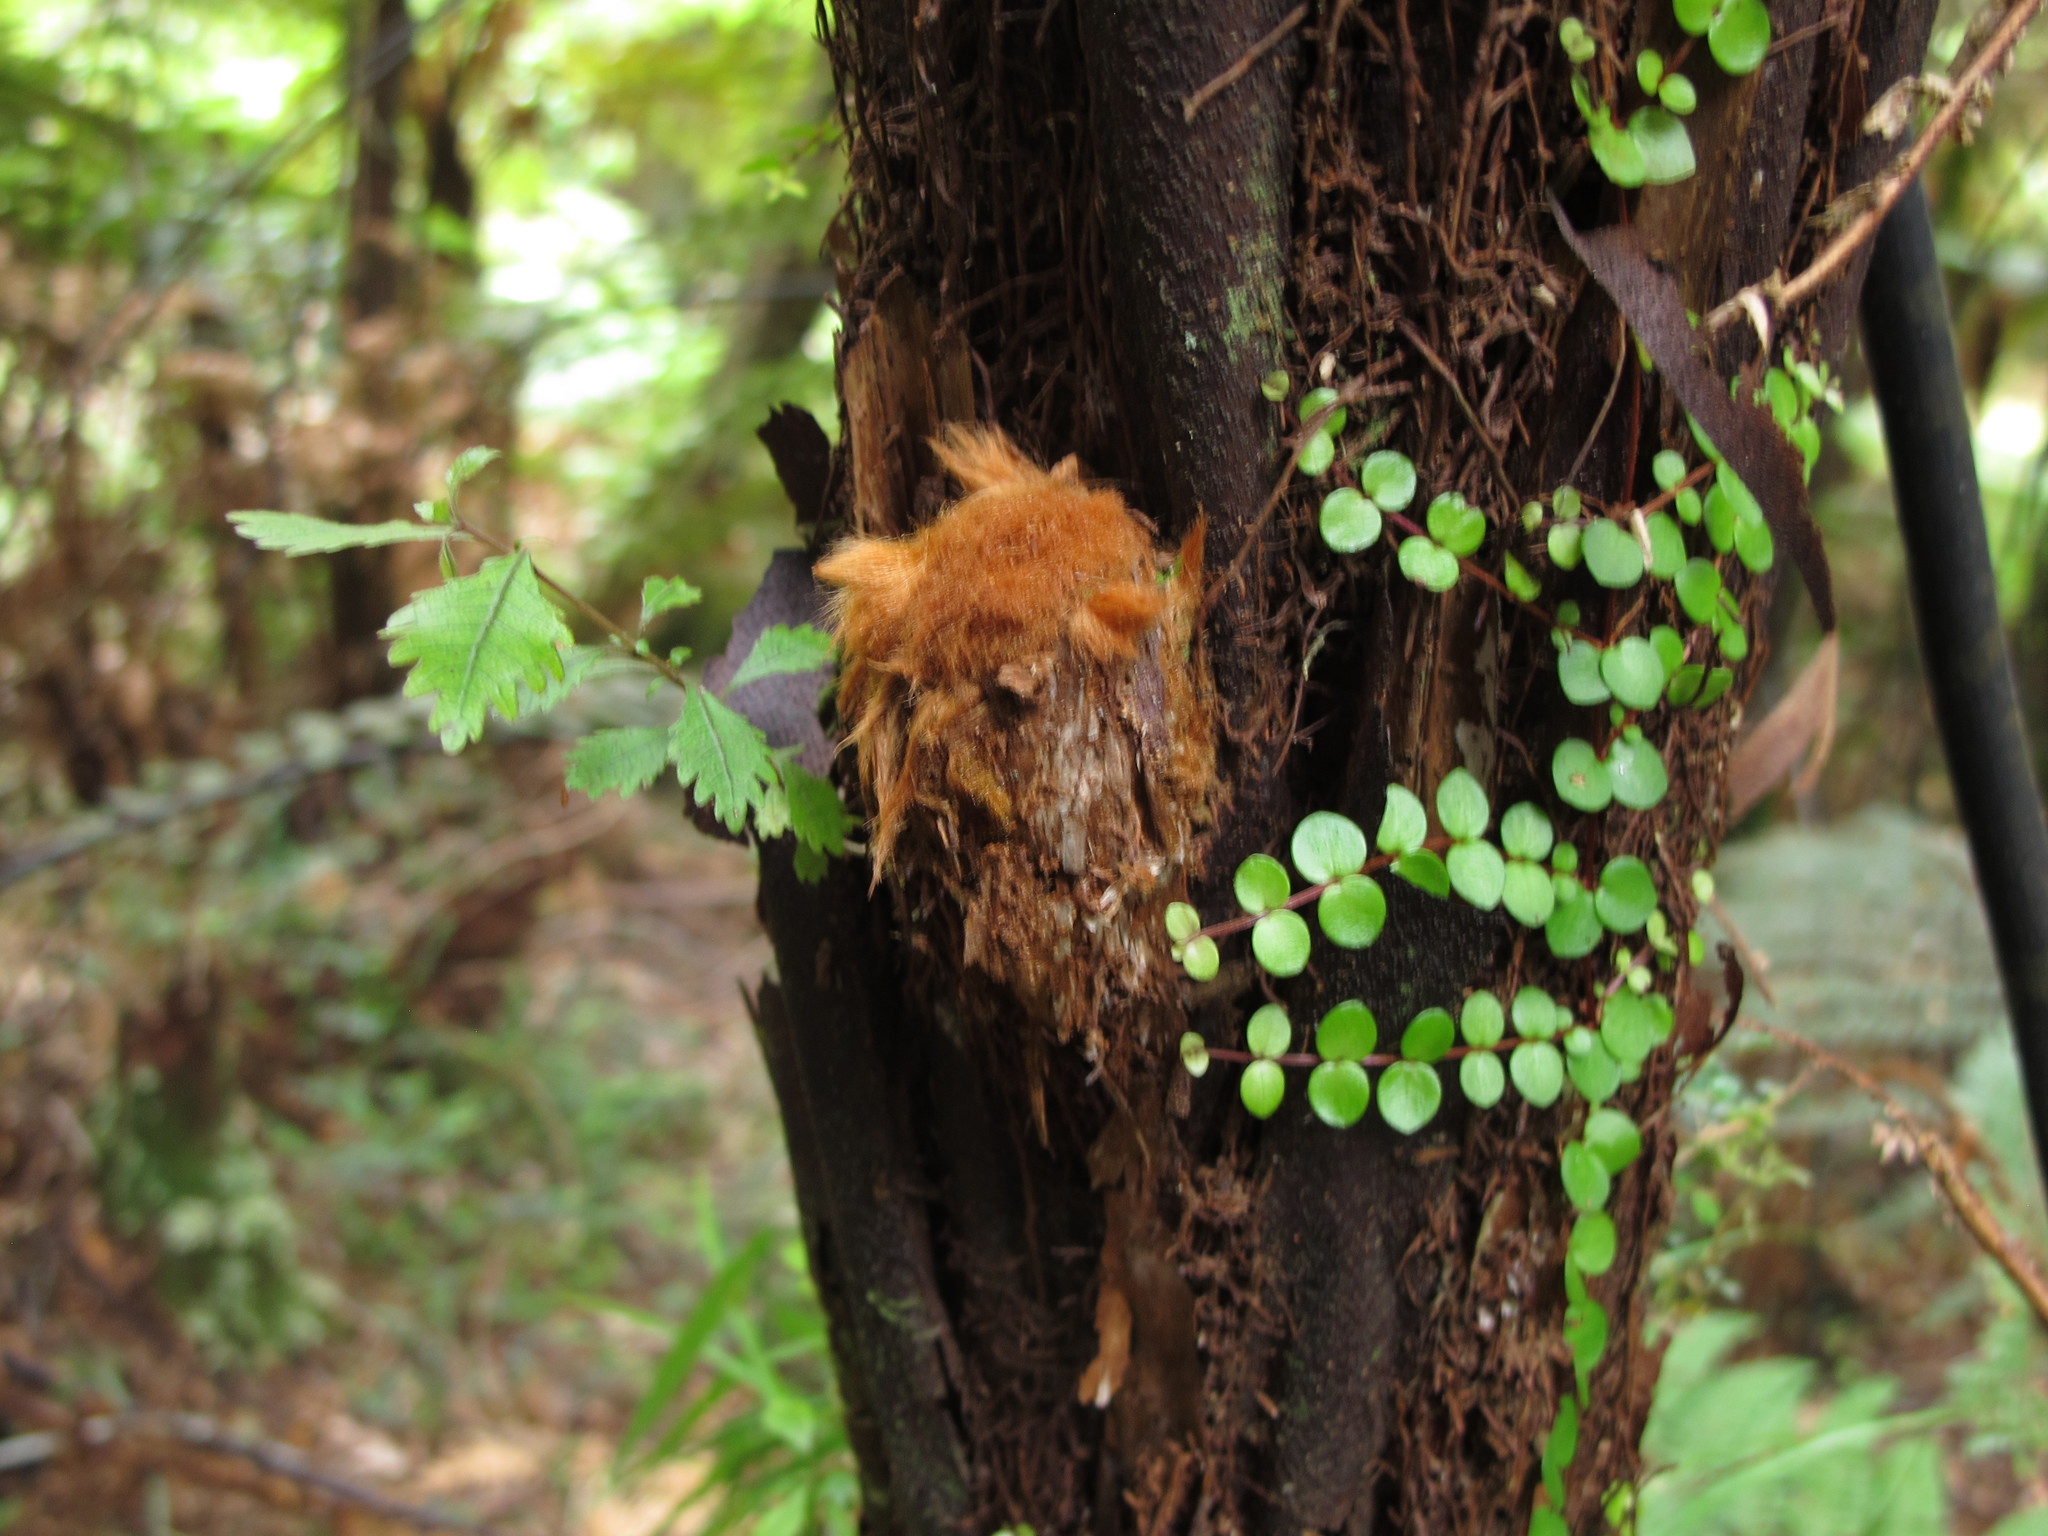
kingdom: Plantae
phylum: Tracheophyta
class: Polypodiopsida
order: Cyatheales
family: Dicksoniaceae
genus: Dicksonia
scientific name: Dicksonia squarrosa
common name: Hard treefern
